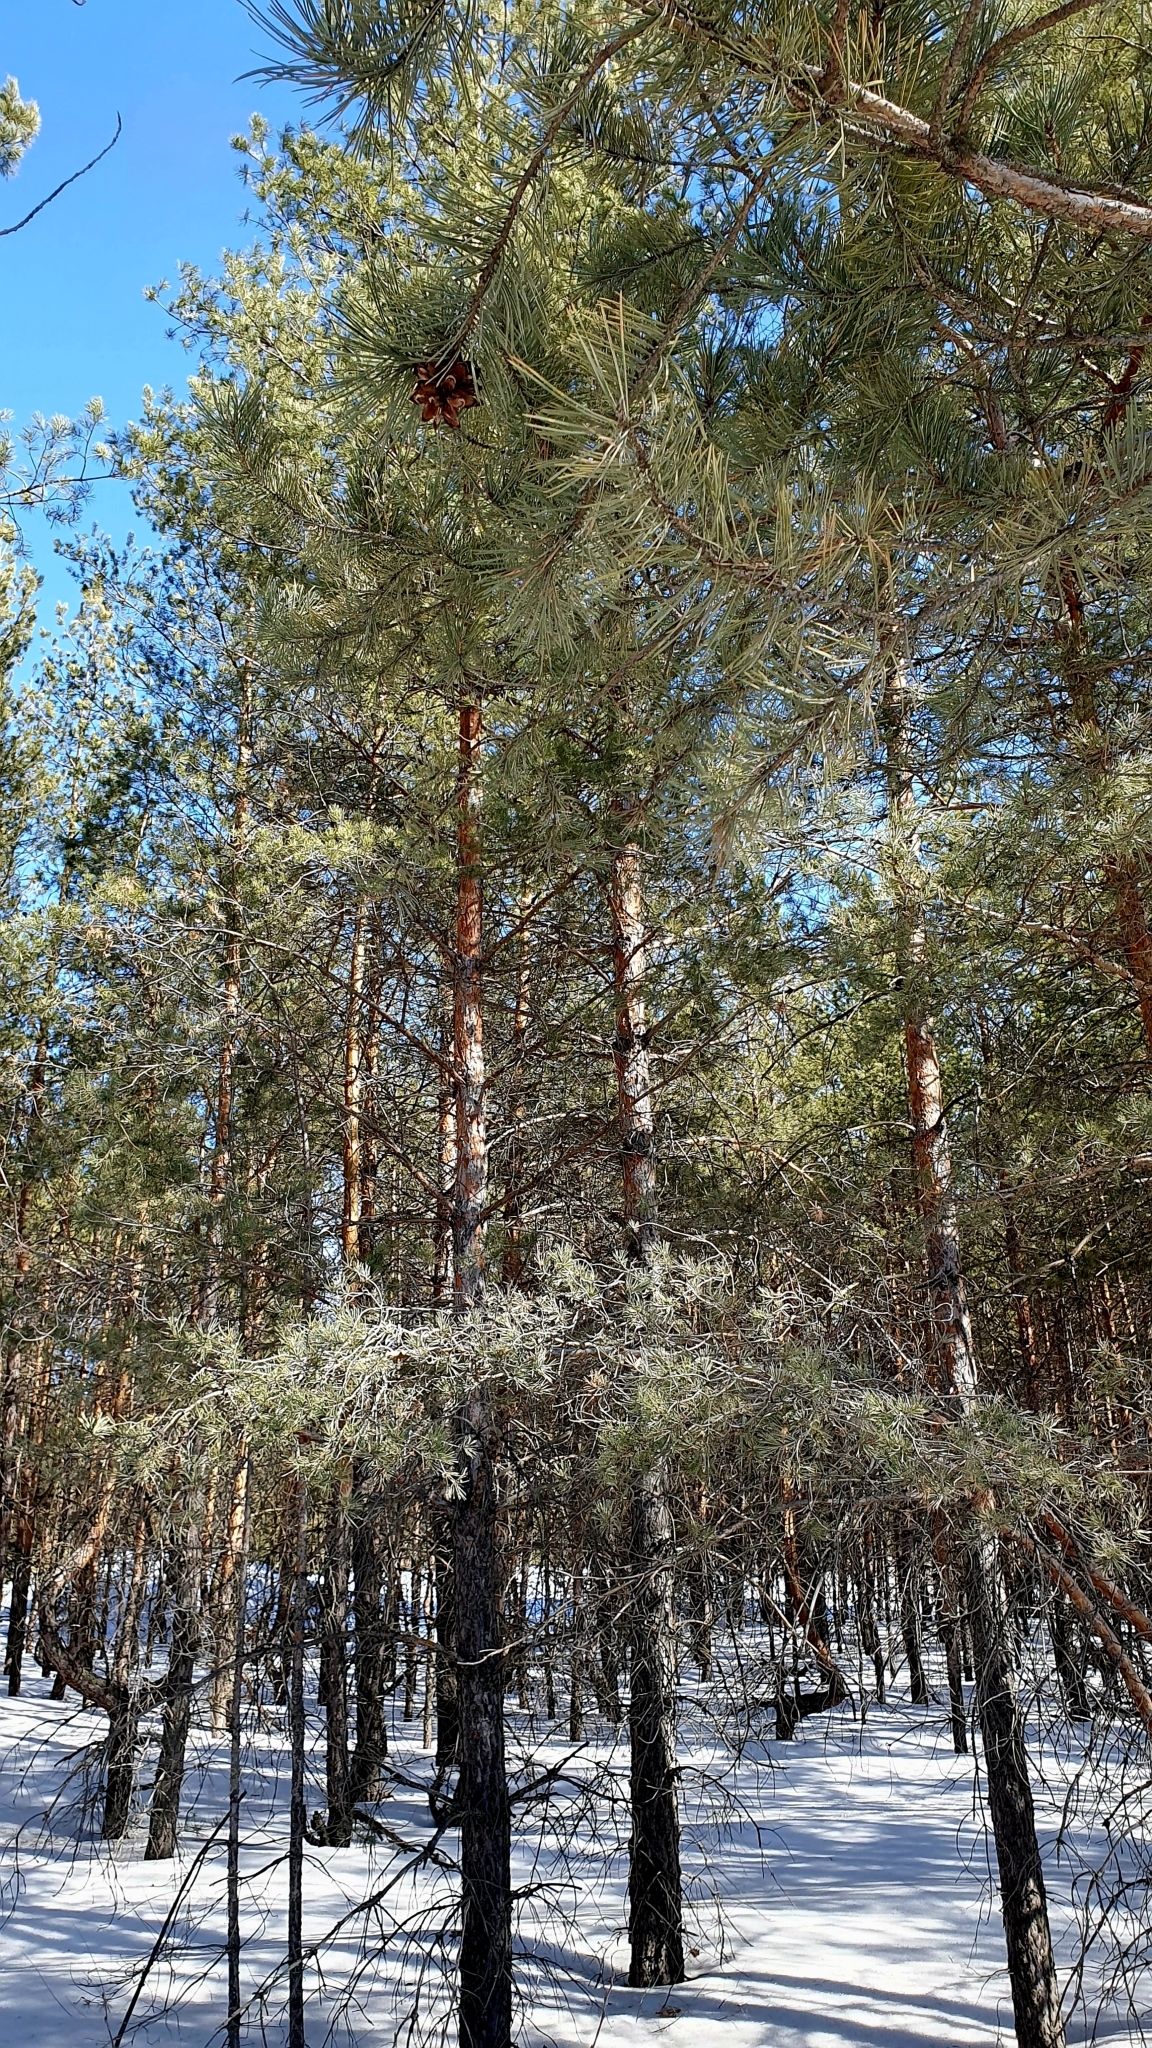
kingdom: Plantae
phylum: Tracheophyta
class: Pinopsida
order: Pinales
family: Pinaceae
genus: Pinus
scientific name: Pinus sylvestris
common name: Scots pine
